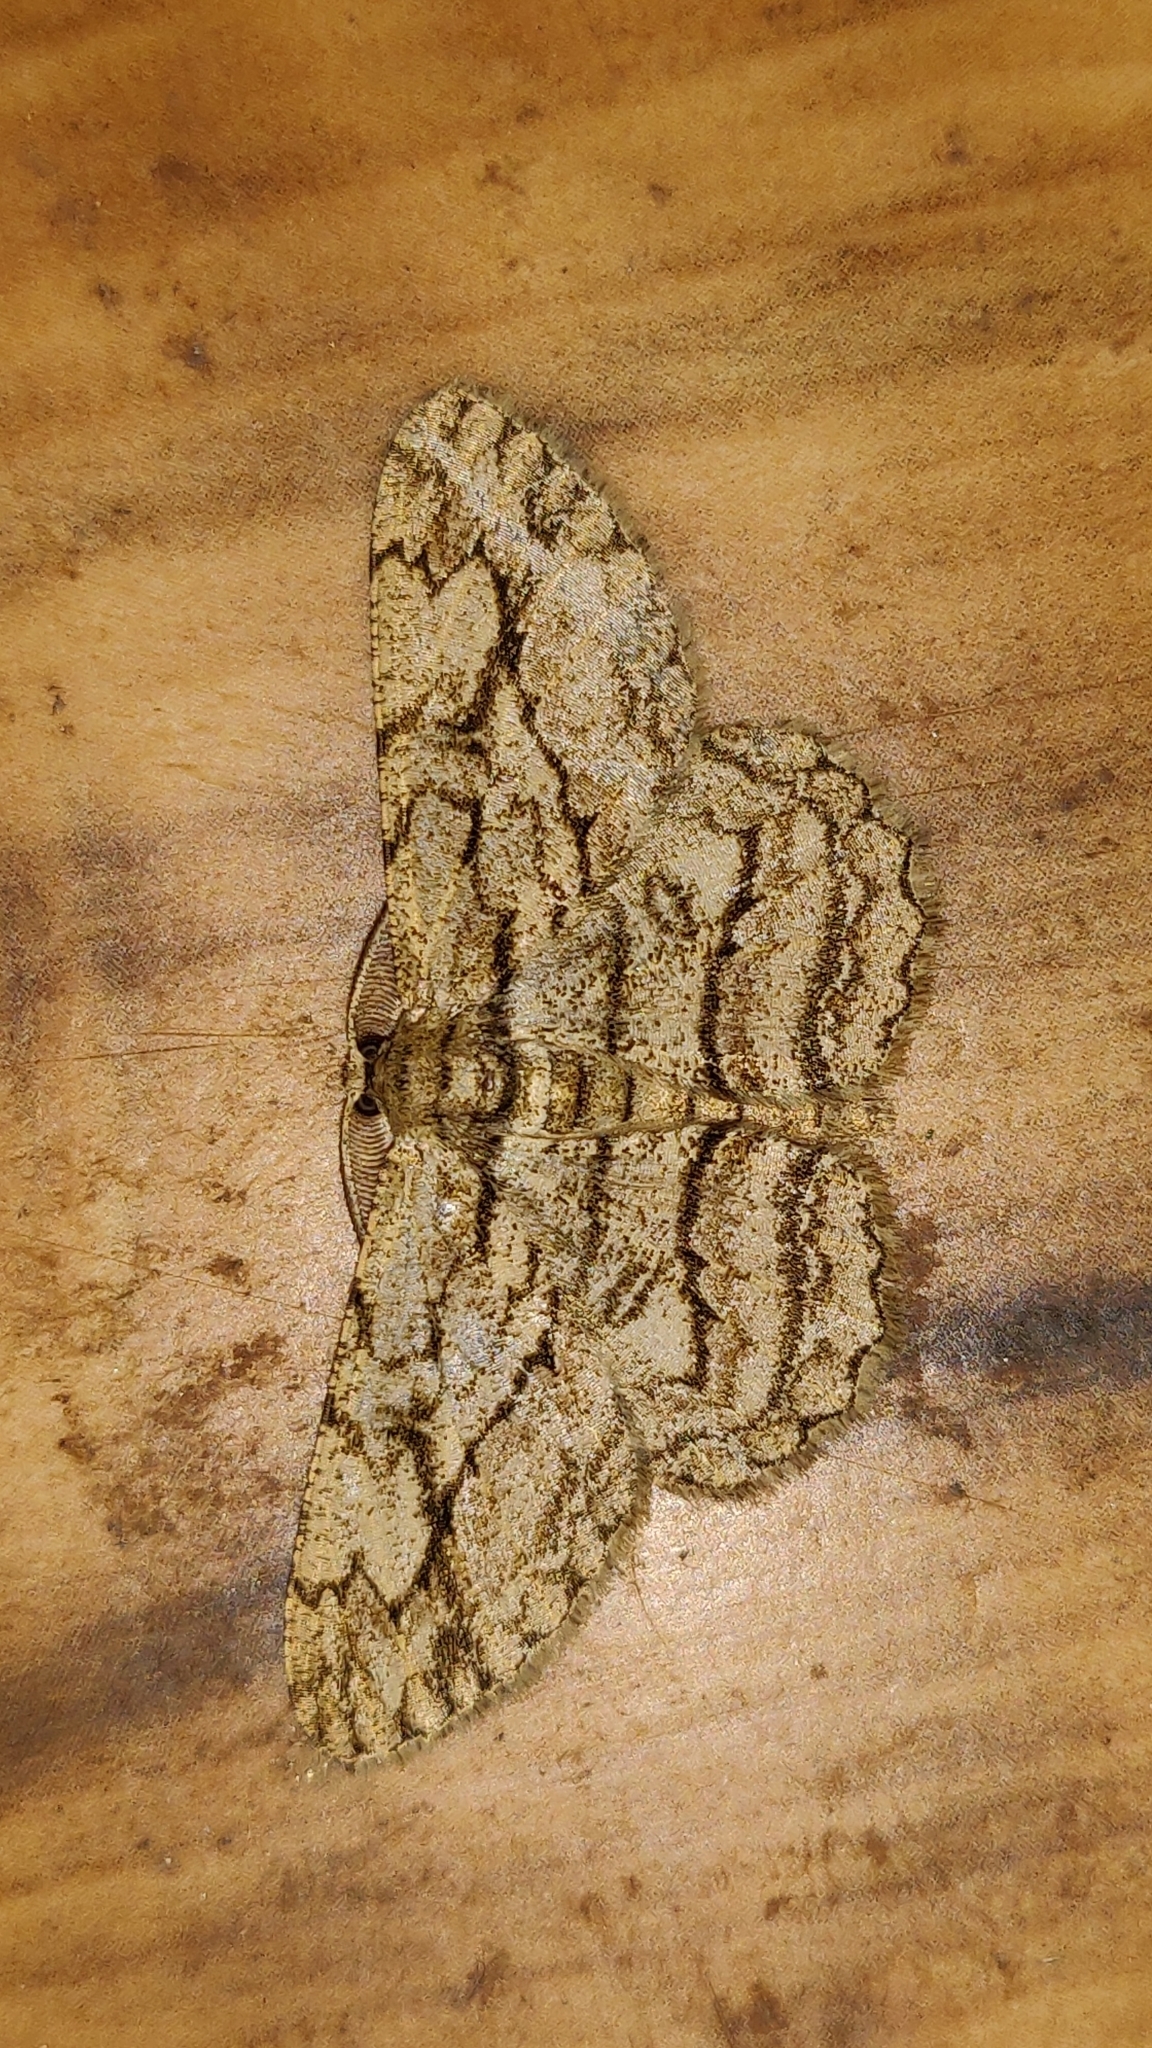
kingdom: Animalia
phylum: Arthropoda
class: Insecta
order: Lepidoptera
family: Geometridae
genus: Hypomecis
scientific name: Hypomecis transcissa
